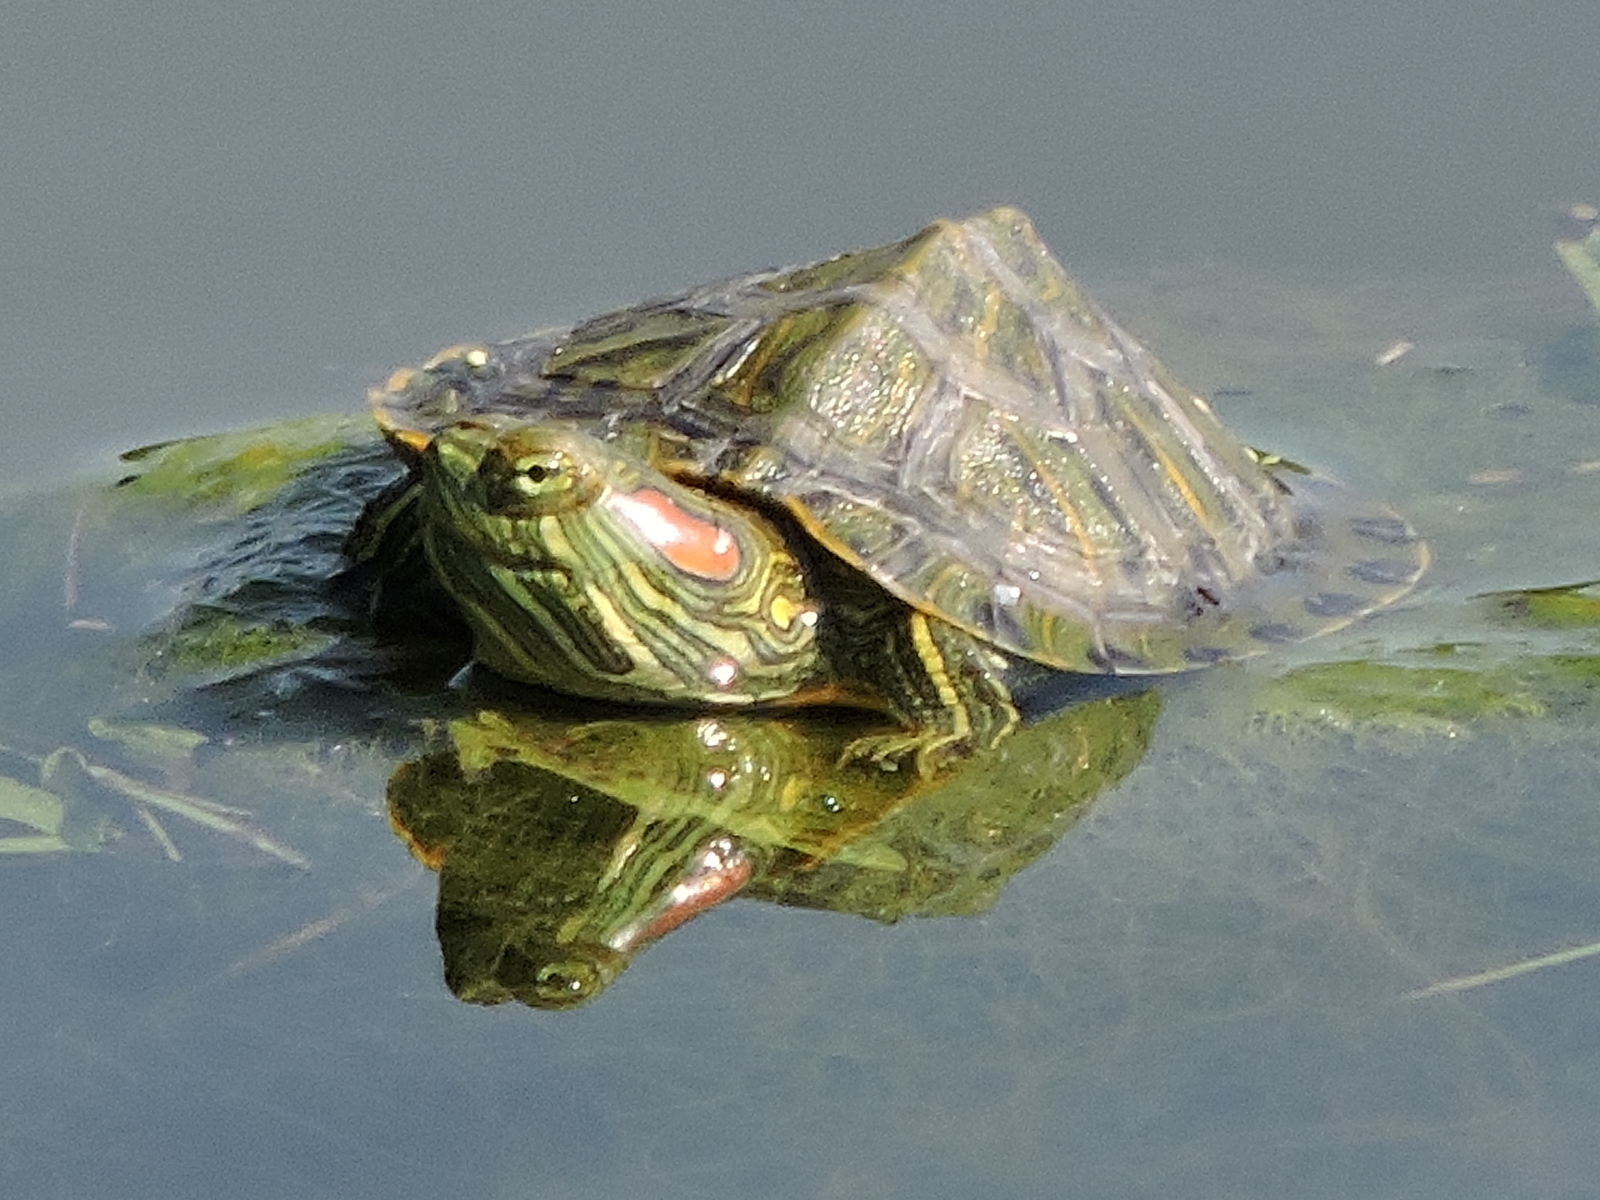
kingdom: Animalia
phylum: Chordata
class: Testudines
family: Emydidae
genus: Trachemys
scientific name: Trachemys scripta
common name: Slider
